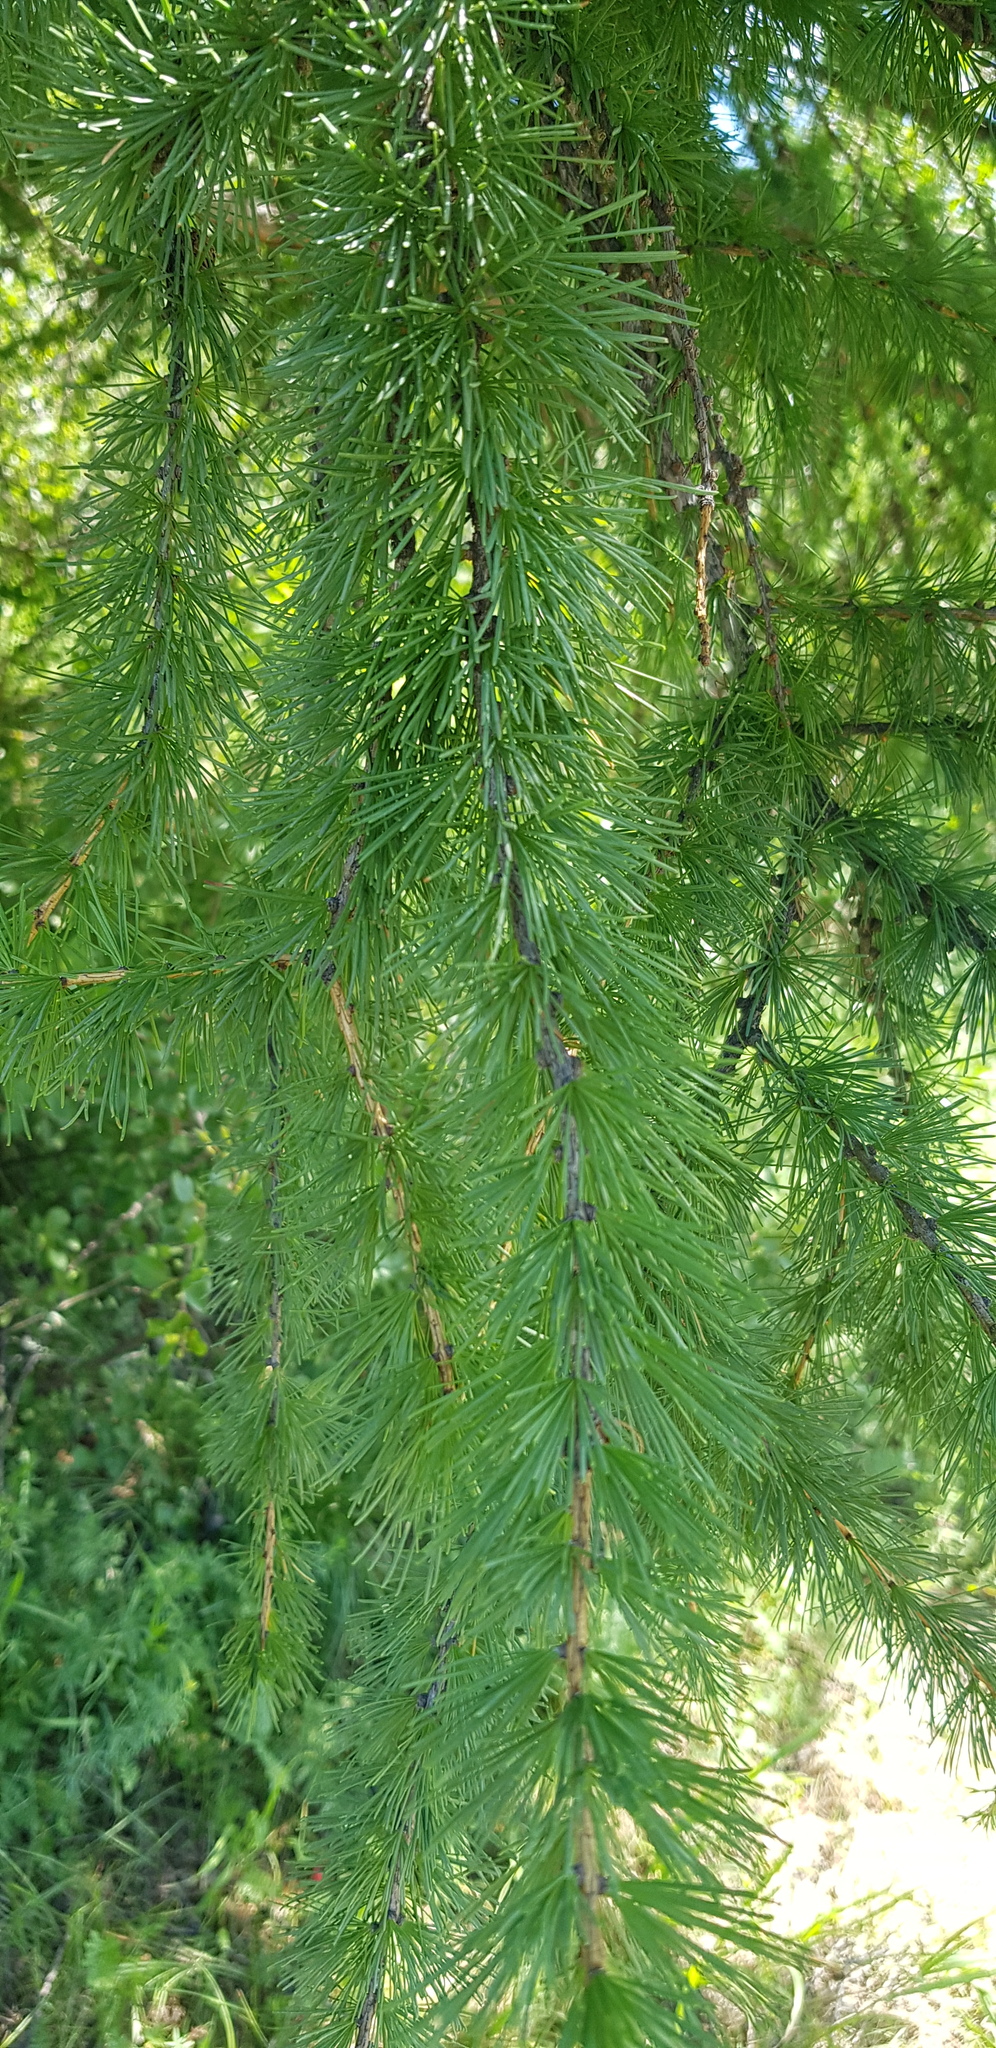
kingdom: Plantae
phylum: Tracheophyta
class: Pinopsida
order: Pinales
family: Pinaceae
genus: Larix
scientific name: Larix sibirica
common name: Siberian larch
